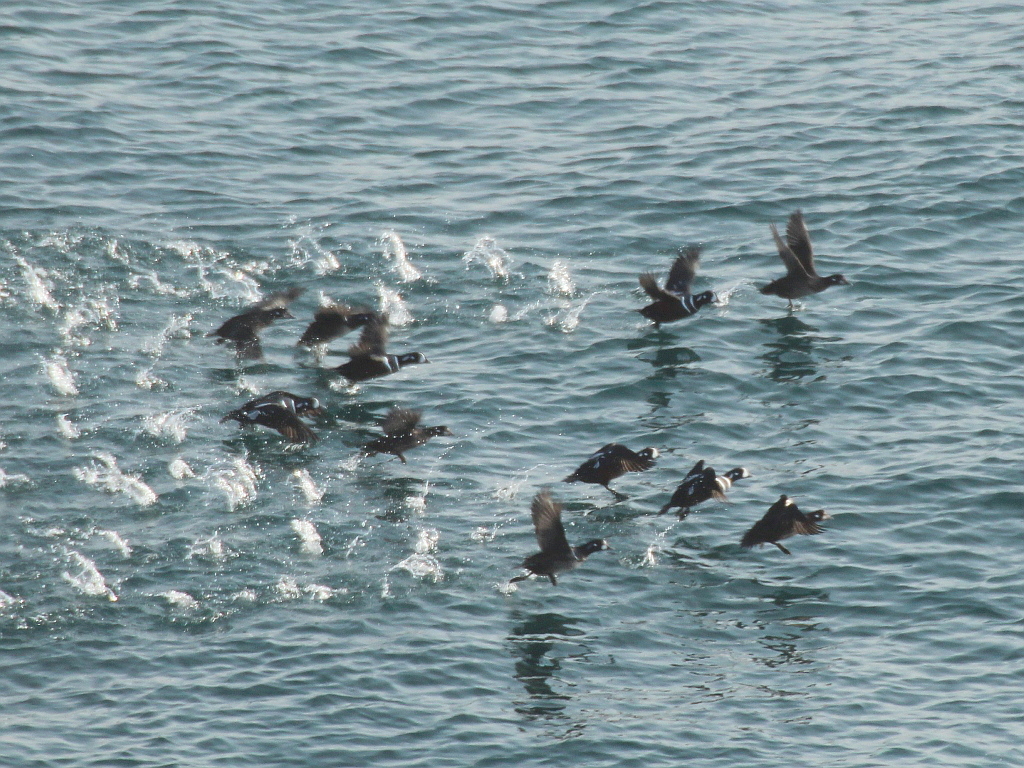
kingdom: Animalia
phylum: Chordata
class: Aves
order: Anseriformes
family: Anatidae
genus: Histrionicus
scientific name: Histrionicus histrionicus
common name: Harlequin duck
